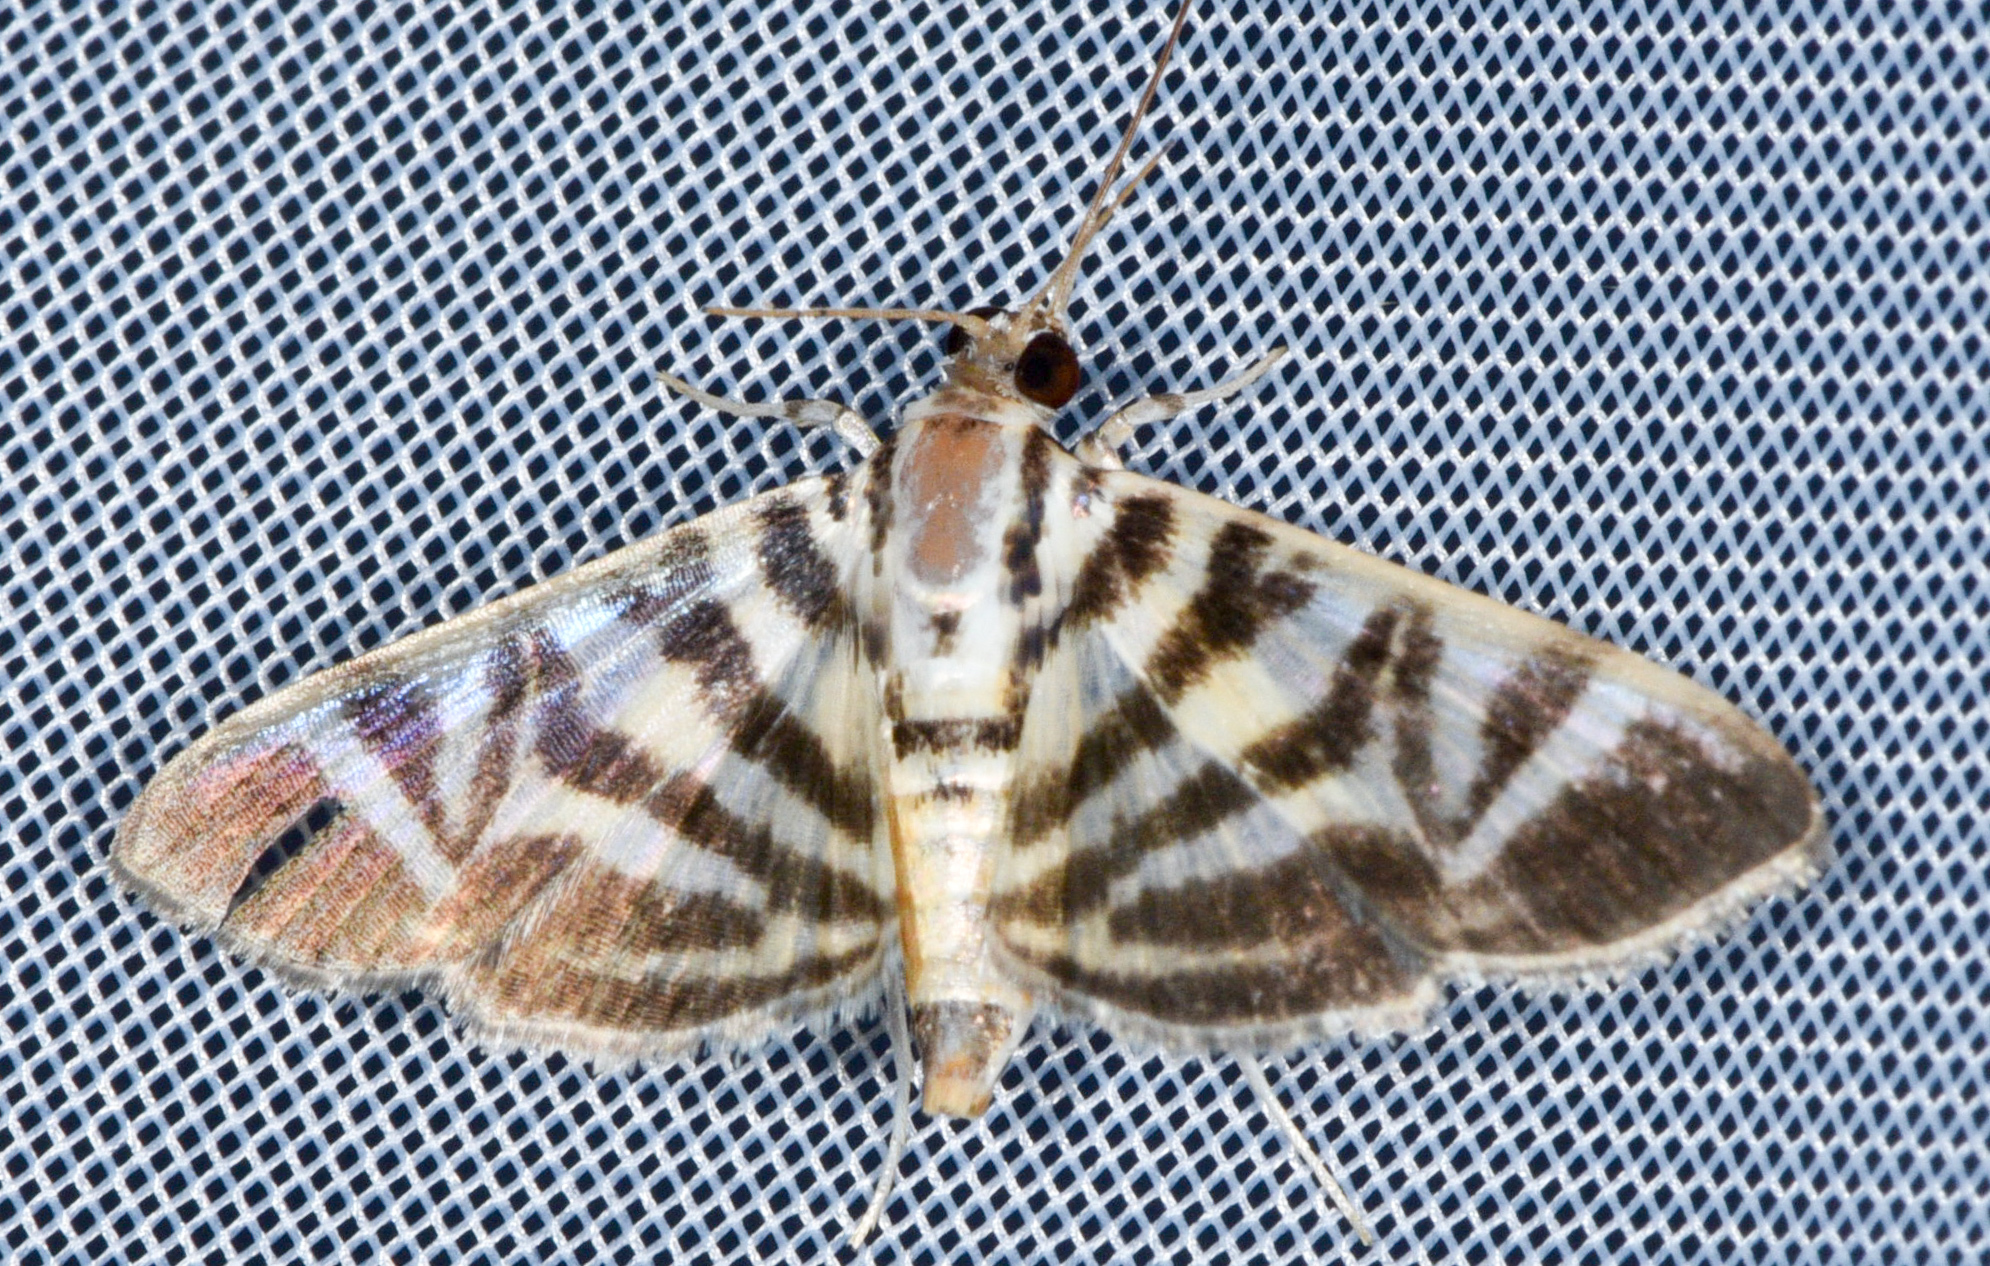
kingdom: Animalia
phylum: Arthropoda
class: Insecta
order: Lepidoptera
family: Crambidae
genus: Zebronia
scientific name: Zebronia Spilomela discordens
